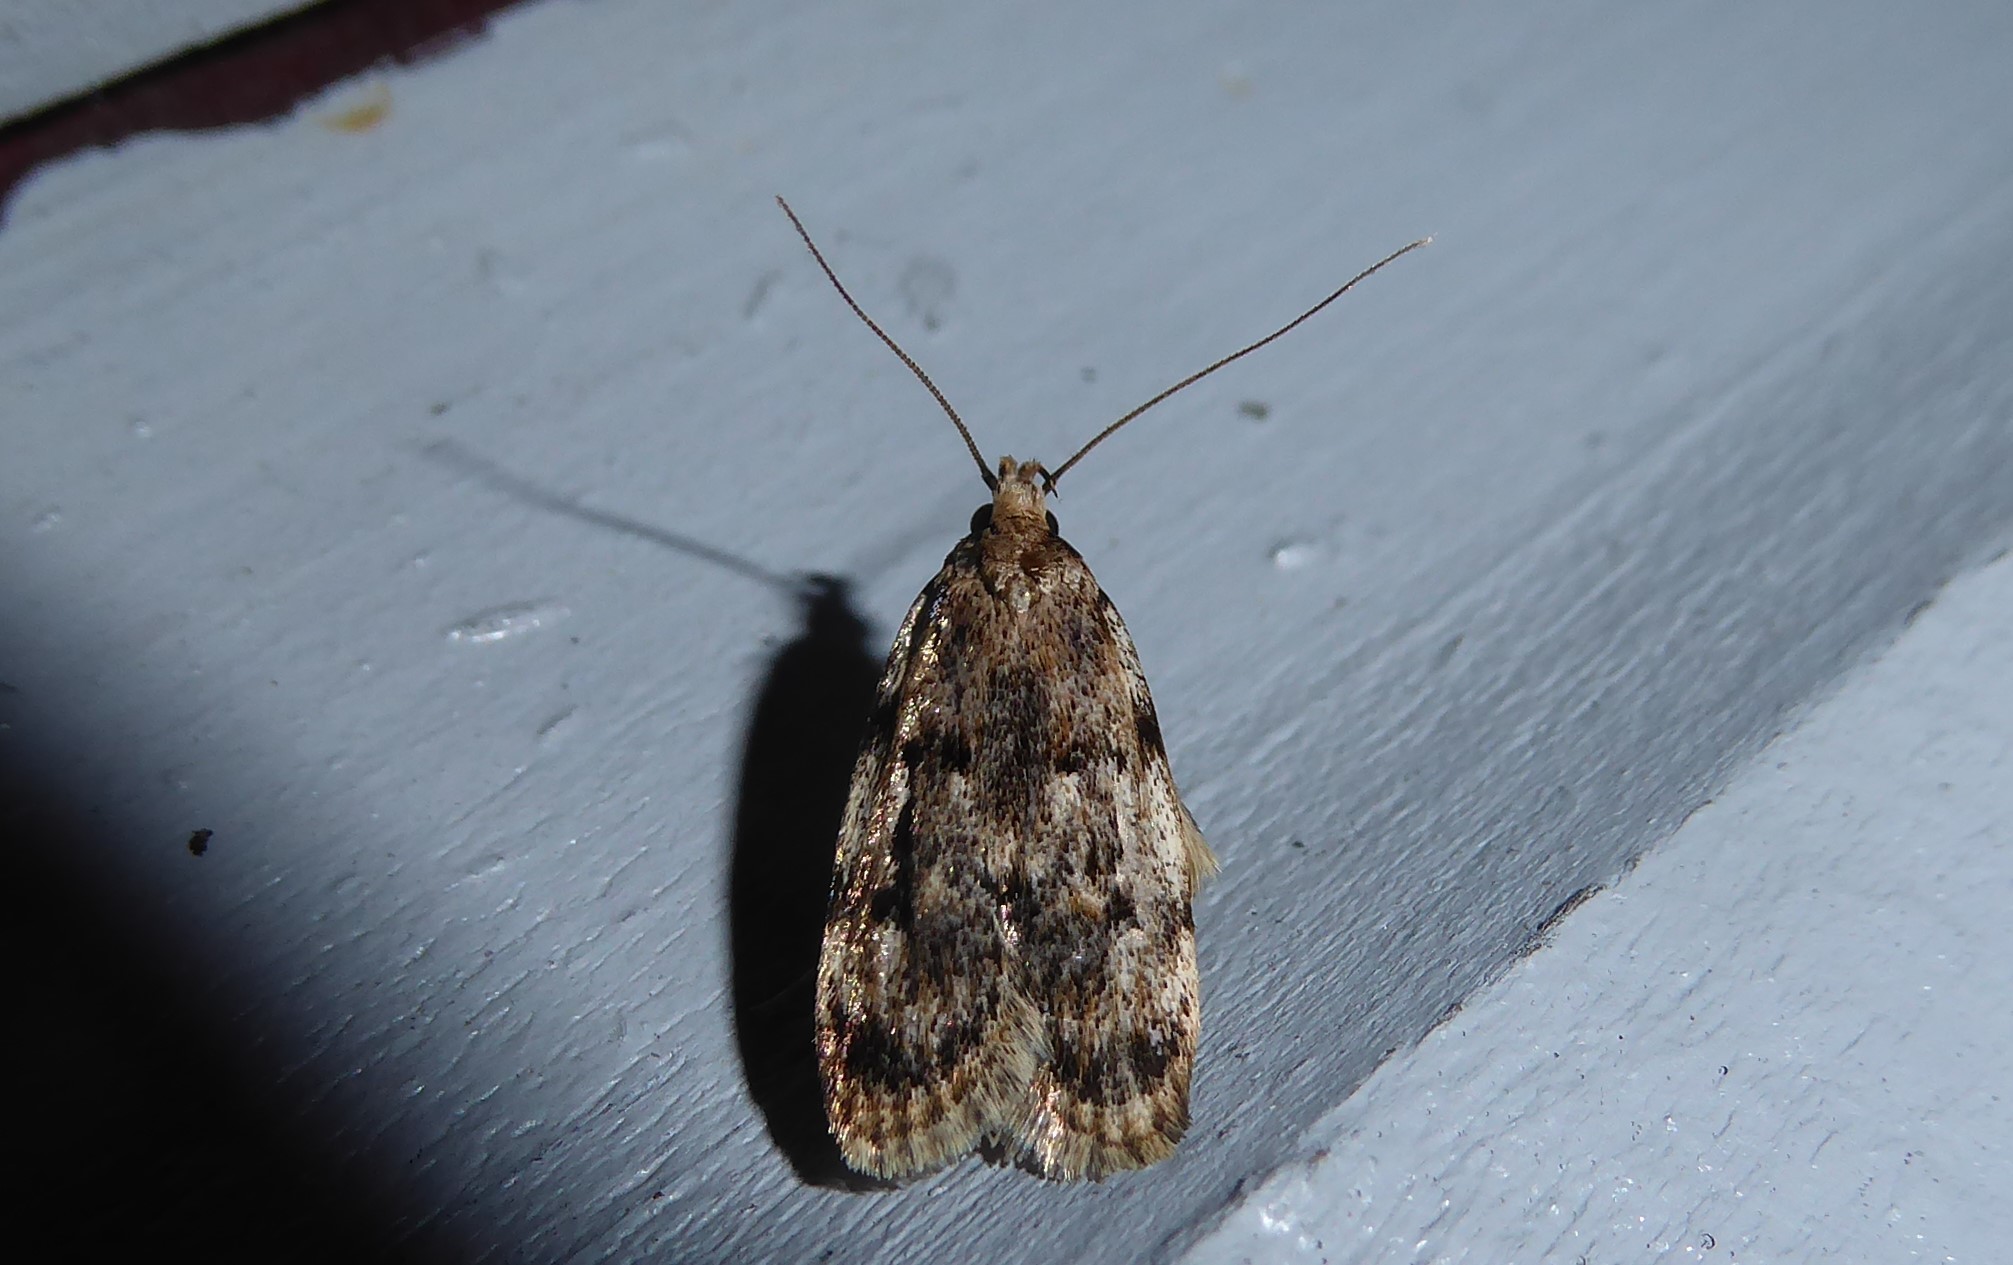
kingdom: Animalia
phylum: Arthropoda
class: Insecta
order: Lepidoptera
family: Oecophoridae
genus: Barea
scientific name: Barea exarcha
